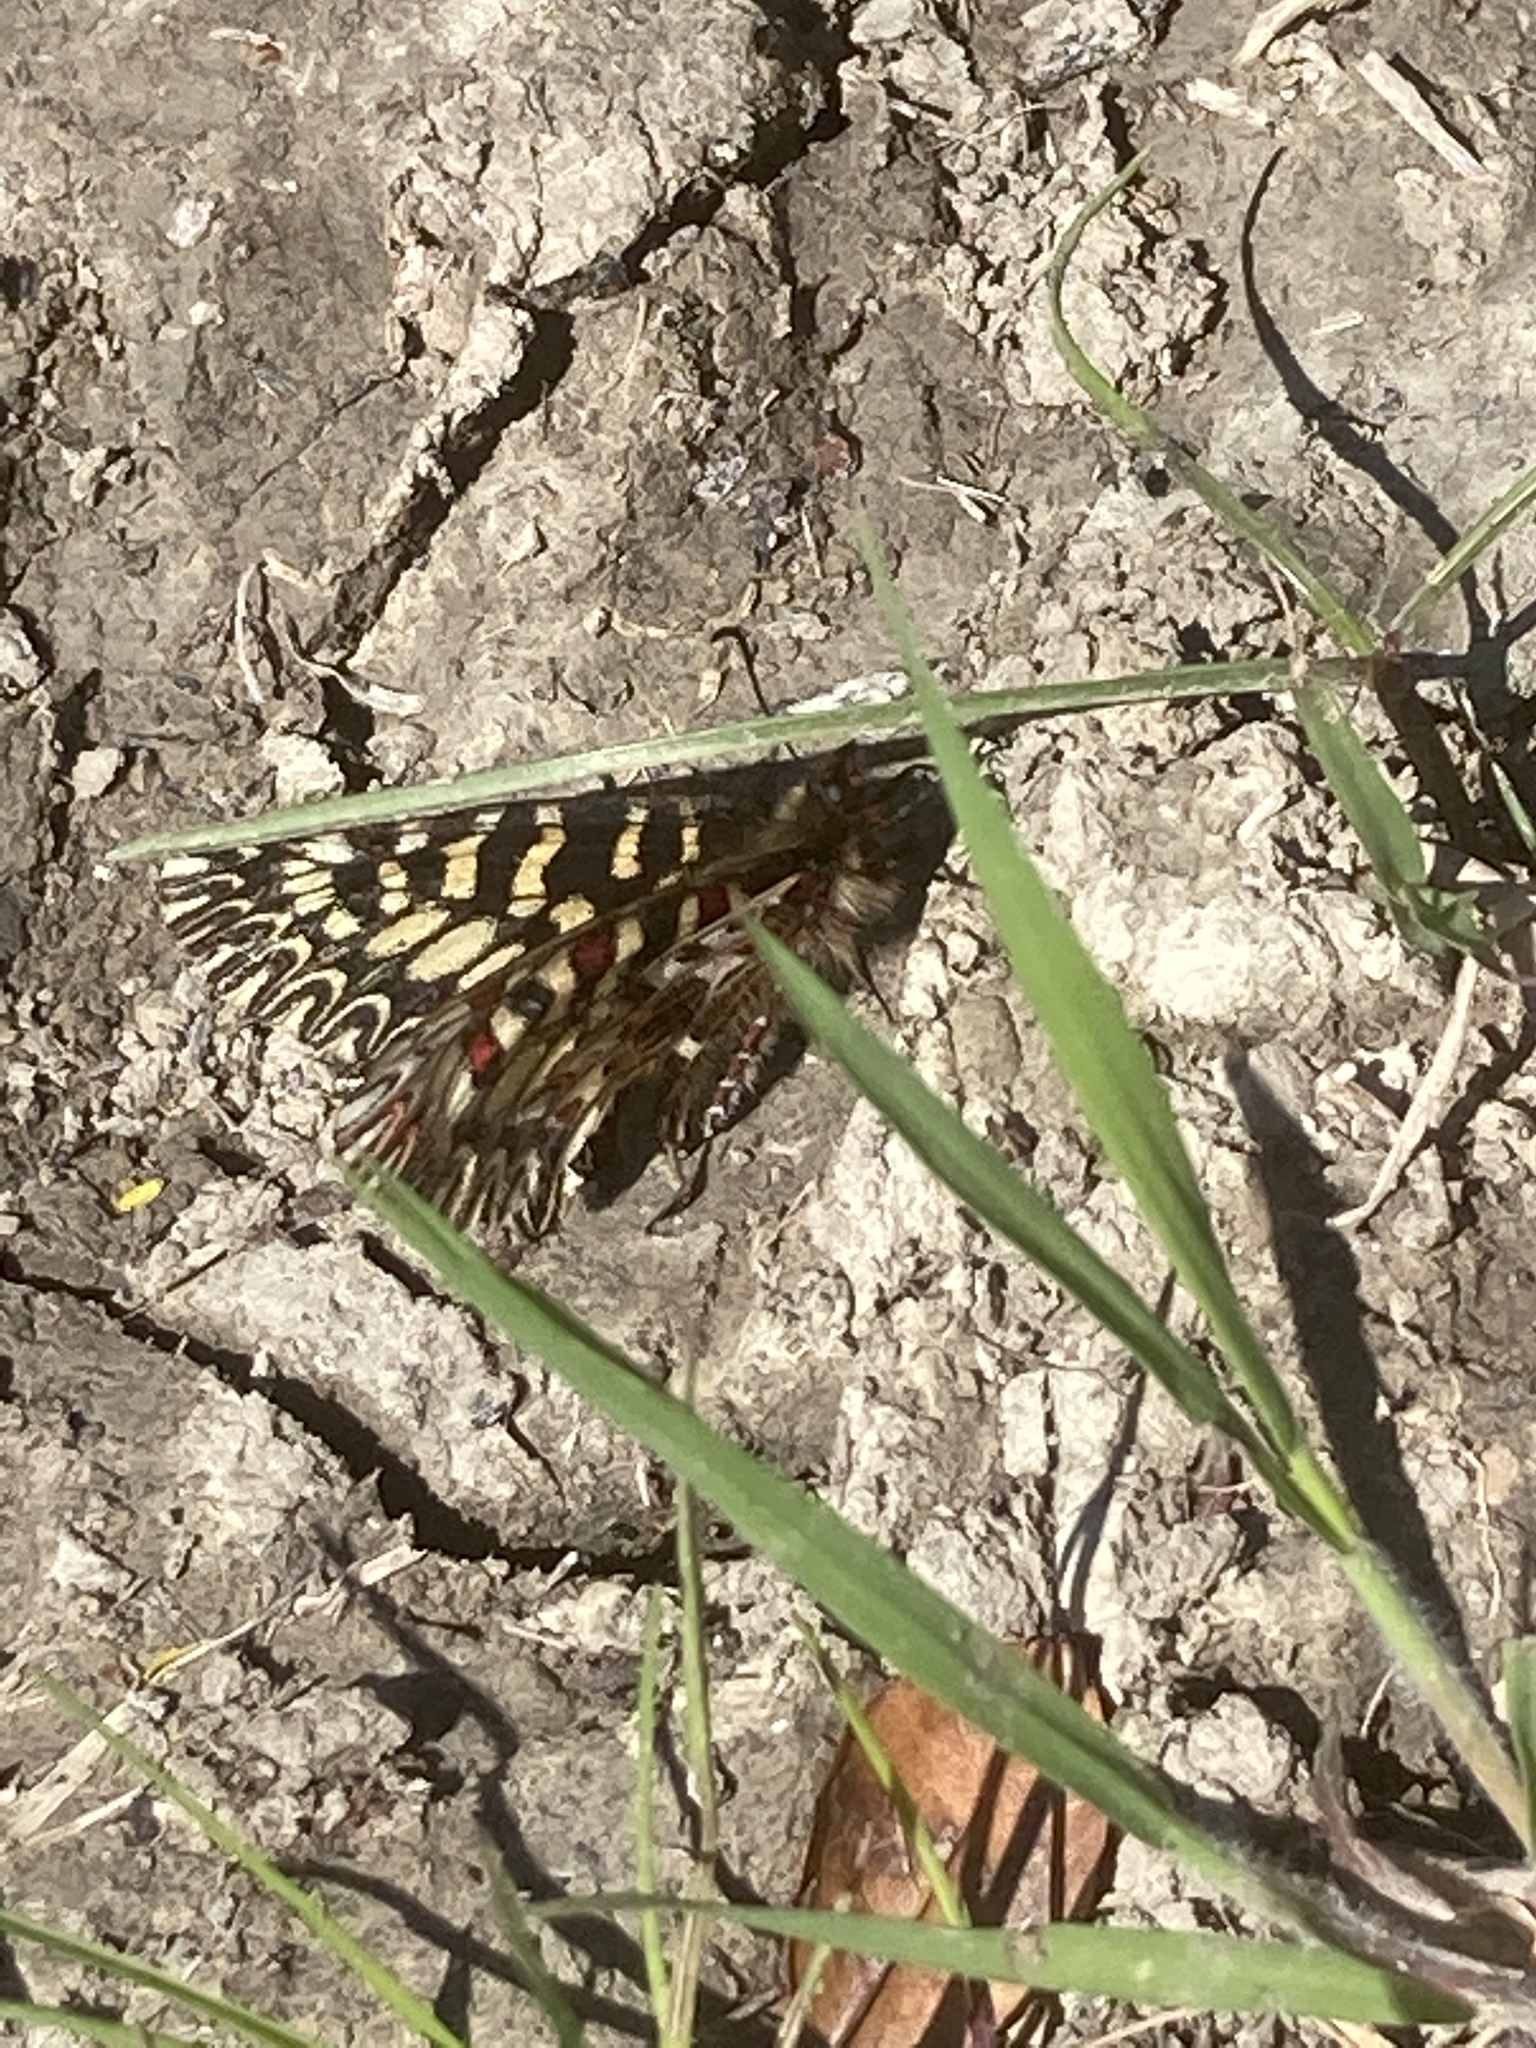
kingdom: Animalia
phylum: Arthropoda
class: Insecta
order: Lepidoptera
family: Papilionidae
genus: Zerynthia
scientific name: Zerynthia polyxena
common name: Southern festoon
